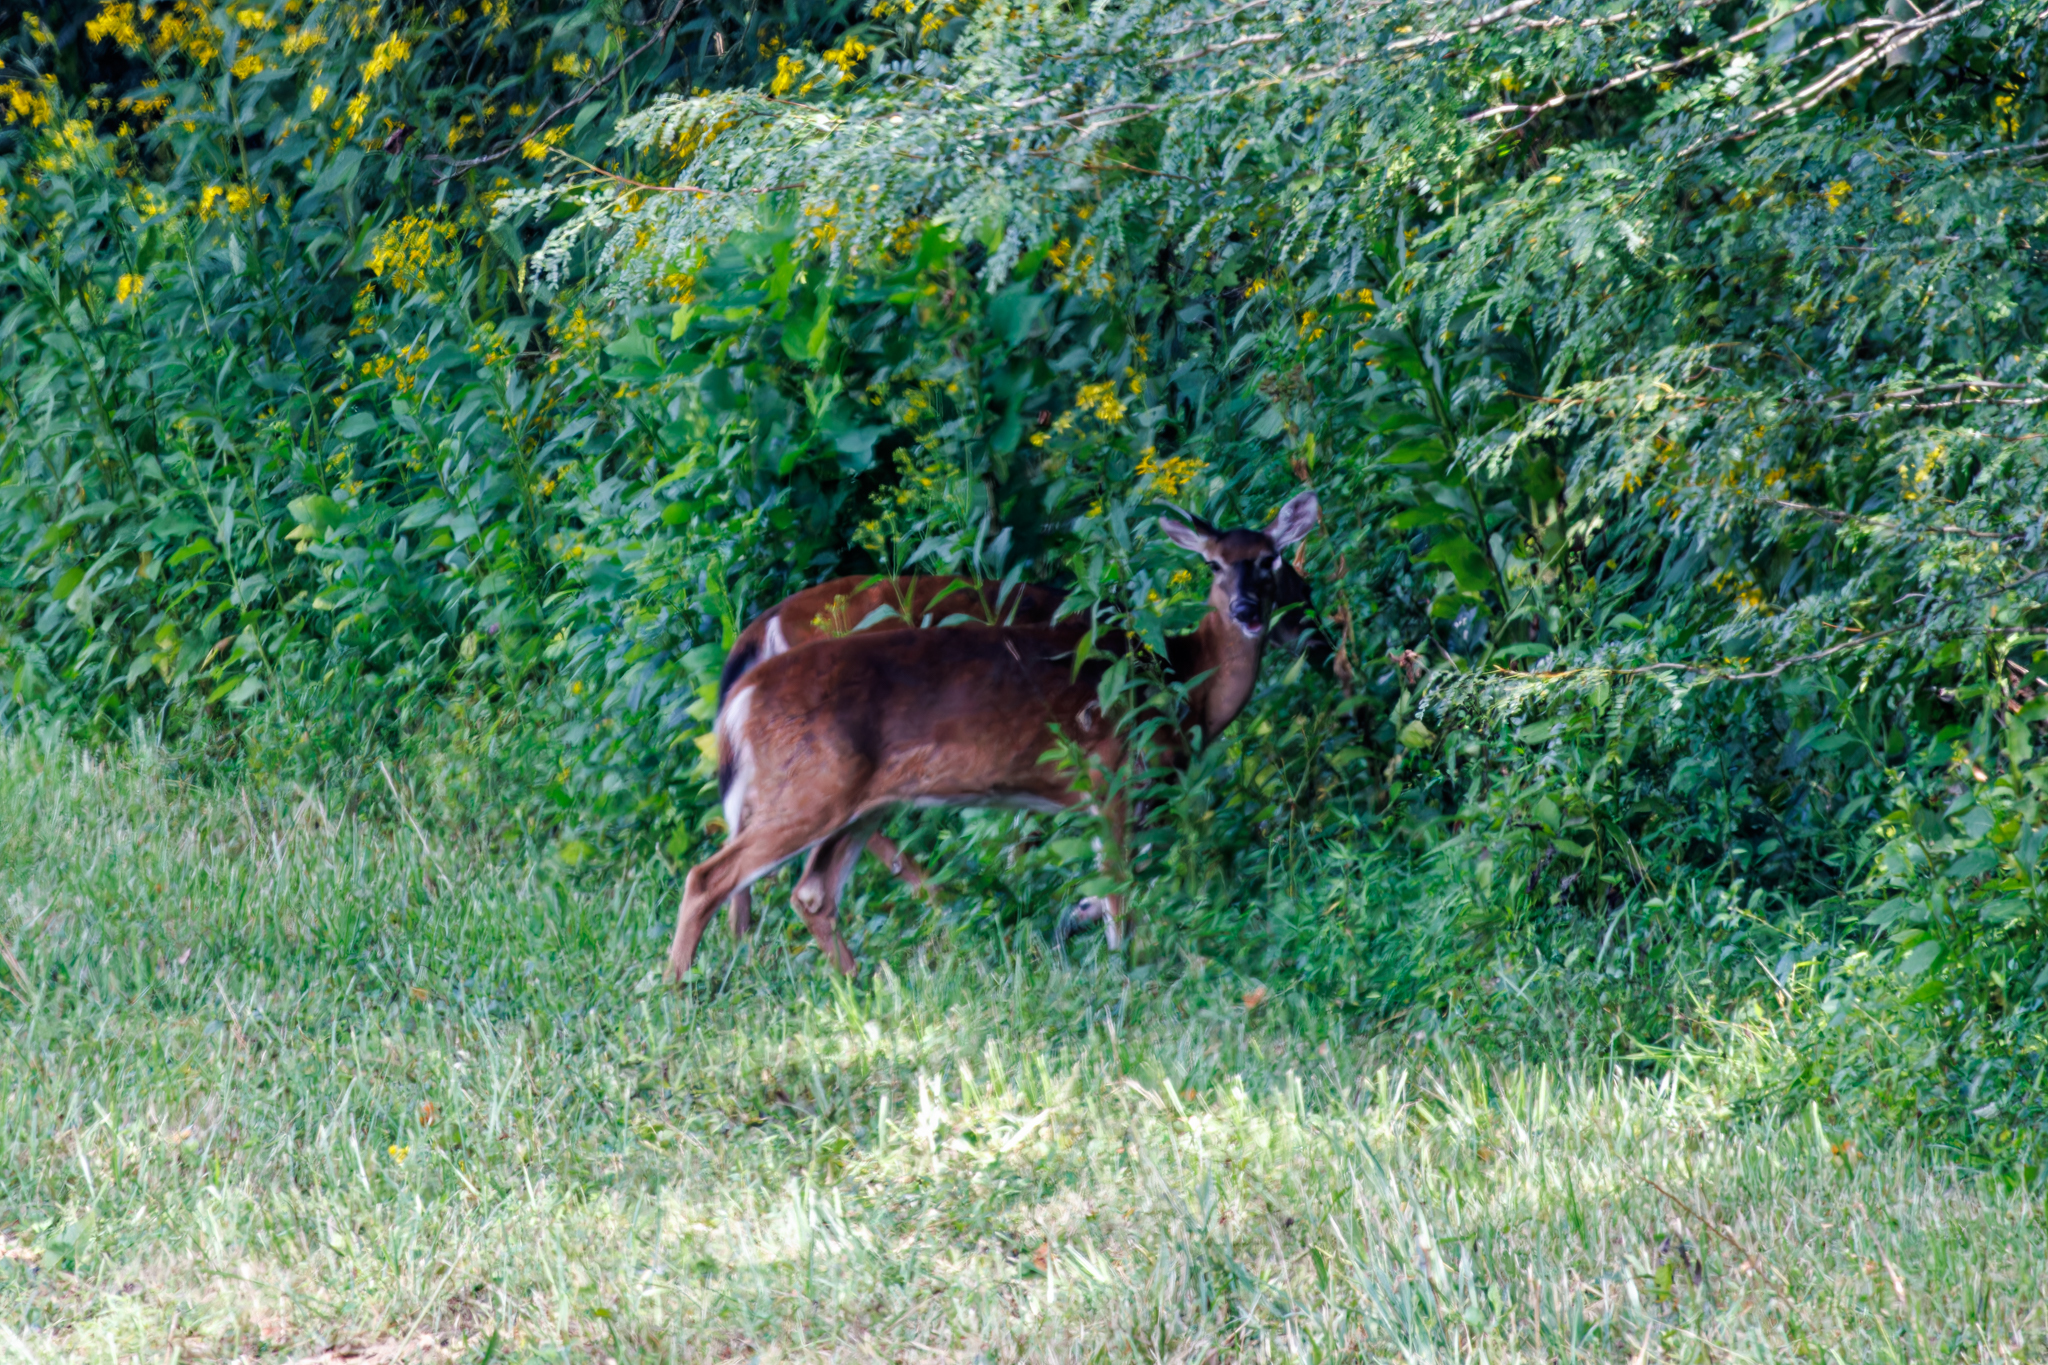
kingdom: Animalia
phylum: Chordata
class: Mammalia
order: Artiodactyla
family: Cervidae
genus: Odocoileus
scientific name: Odocoileus virginianus
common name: White-tailed deer
